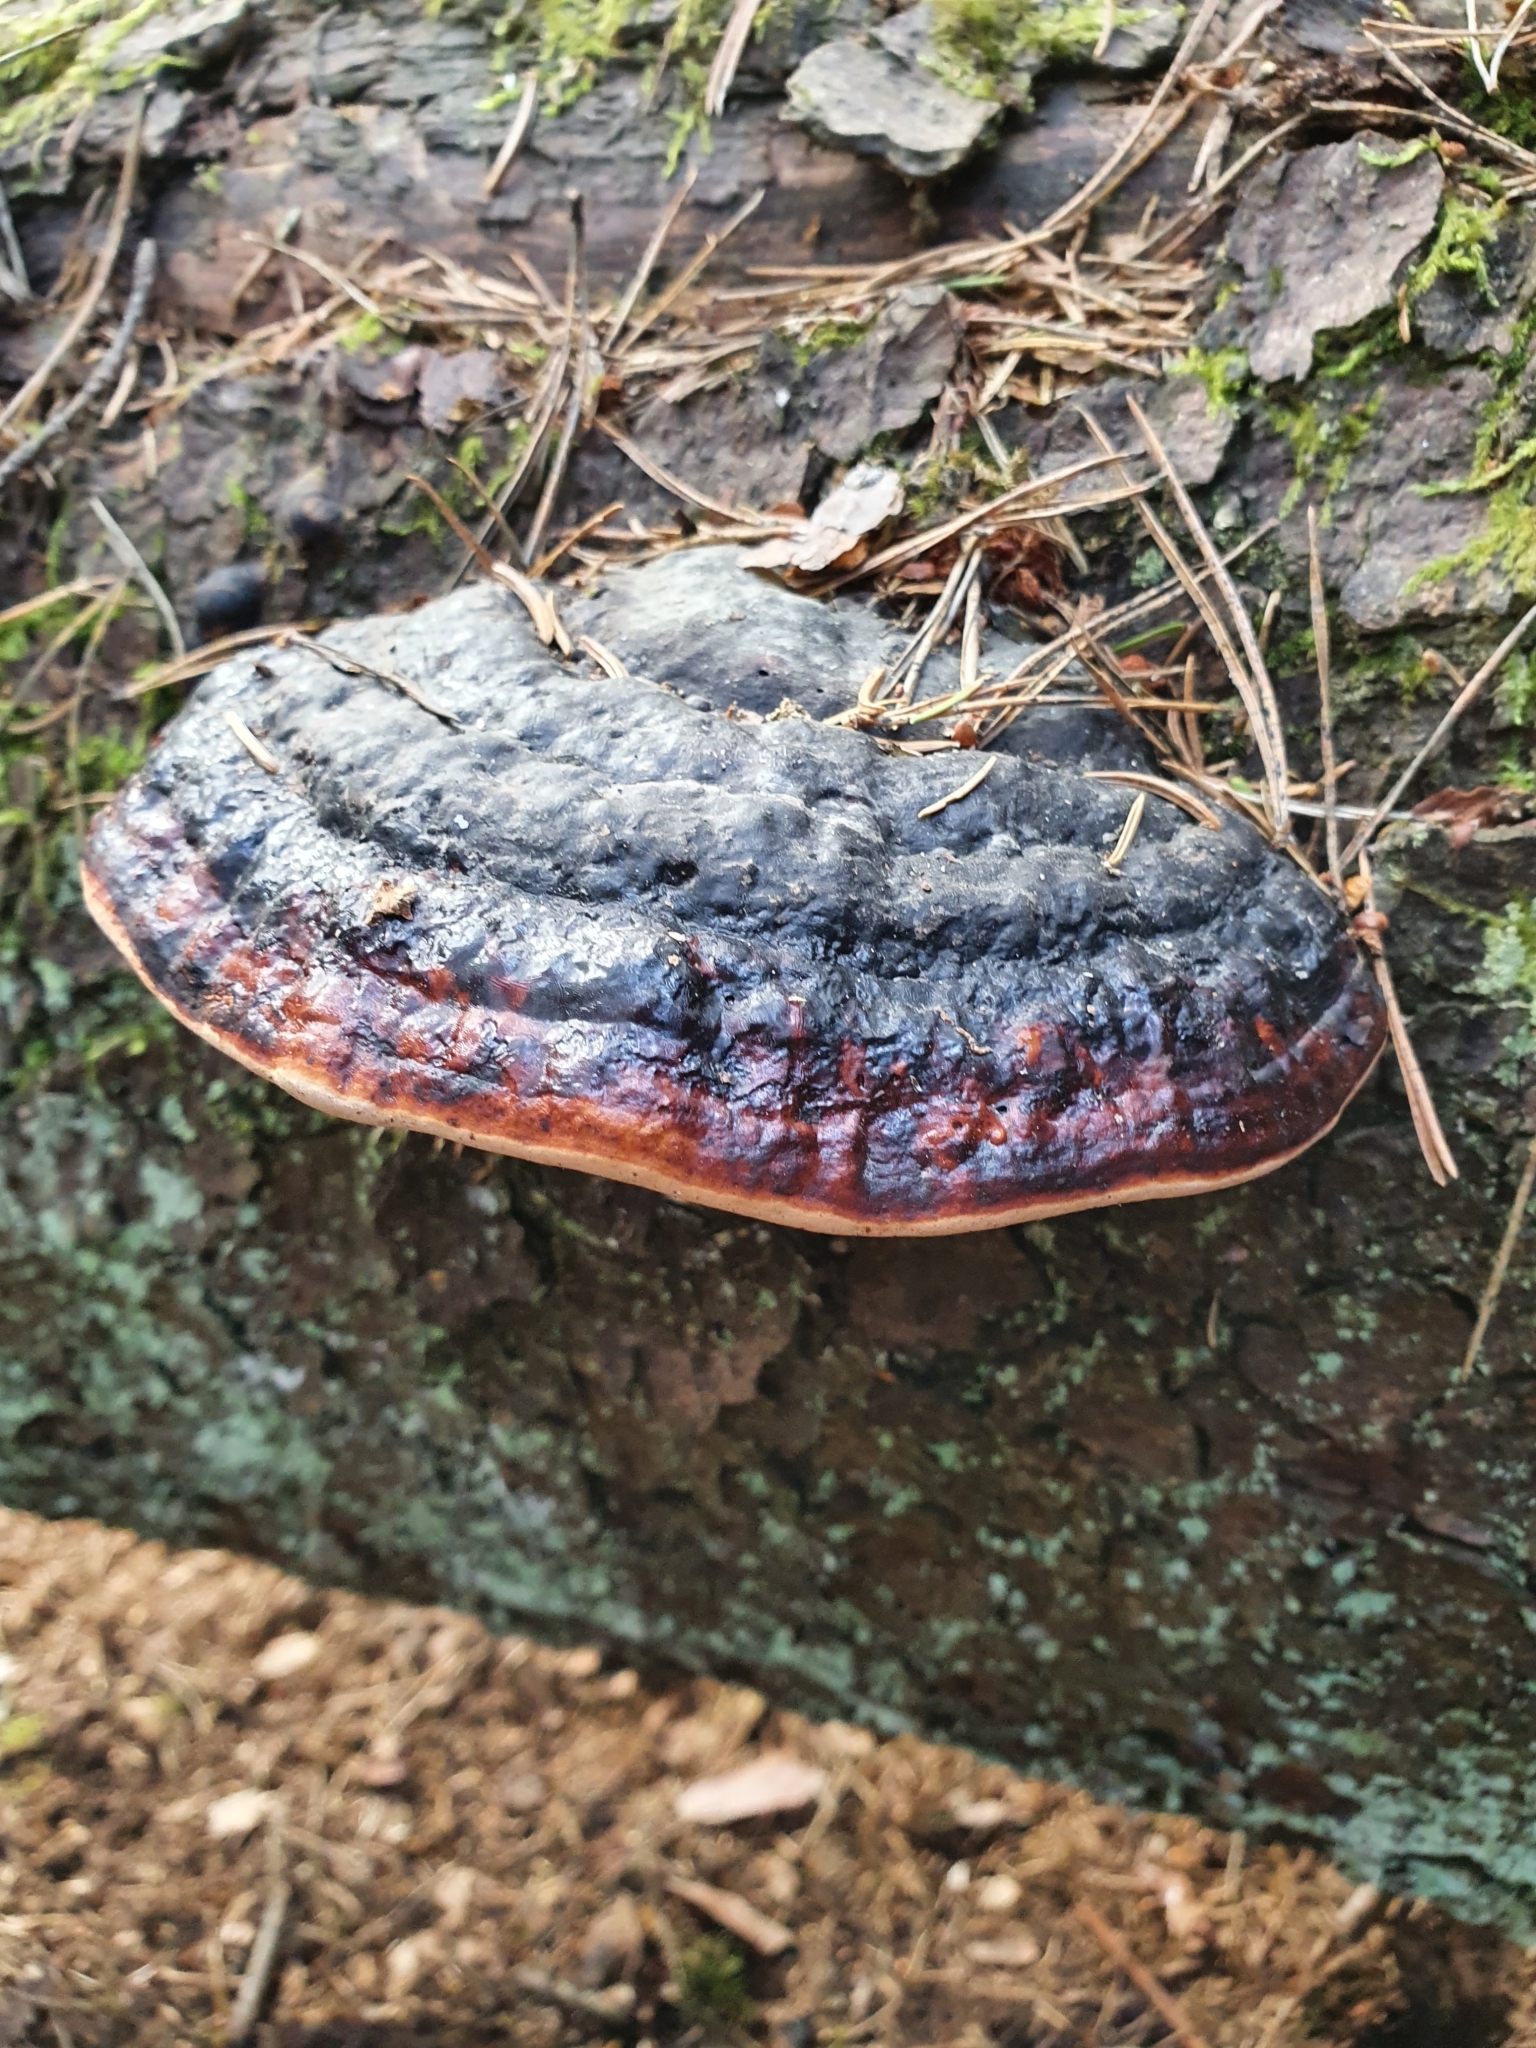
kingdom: Fungi
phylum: Basidiomycota
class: Agaricomycetes
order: Polyporales
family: Fomitopsidaceae
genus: Fomitopsis
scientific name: Fomitopsis pinicola
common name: Red-belted bracket
